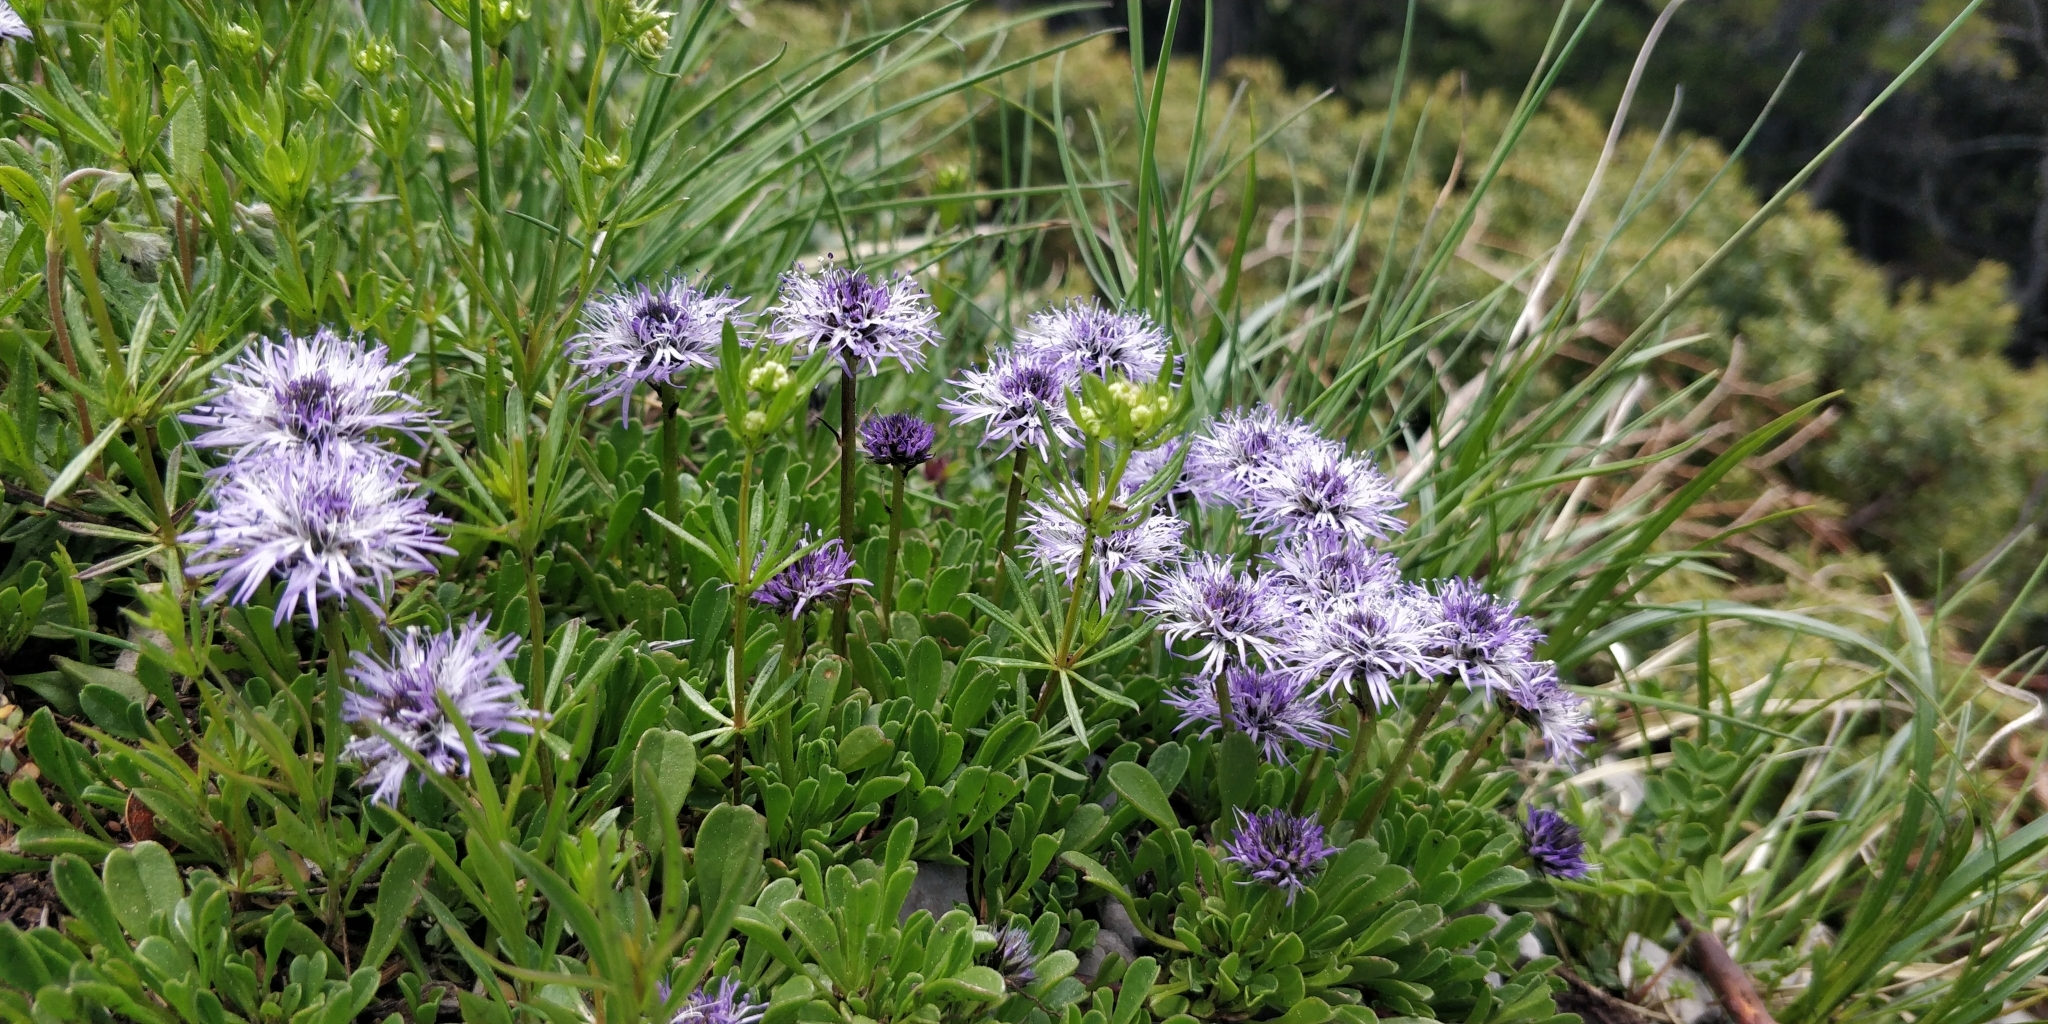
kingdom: Plantae
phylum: Tracheophyta
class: Magnoliopsida
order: Lamiales
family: Plantaginaceae
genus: Globularia
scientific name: Globularia cordifolia
